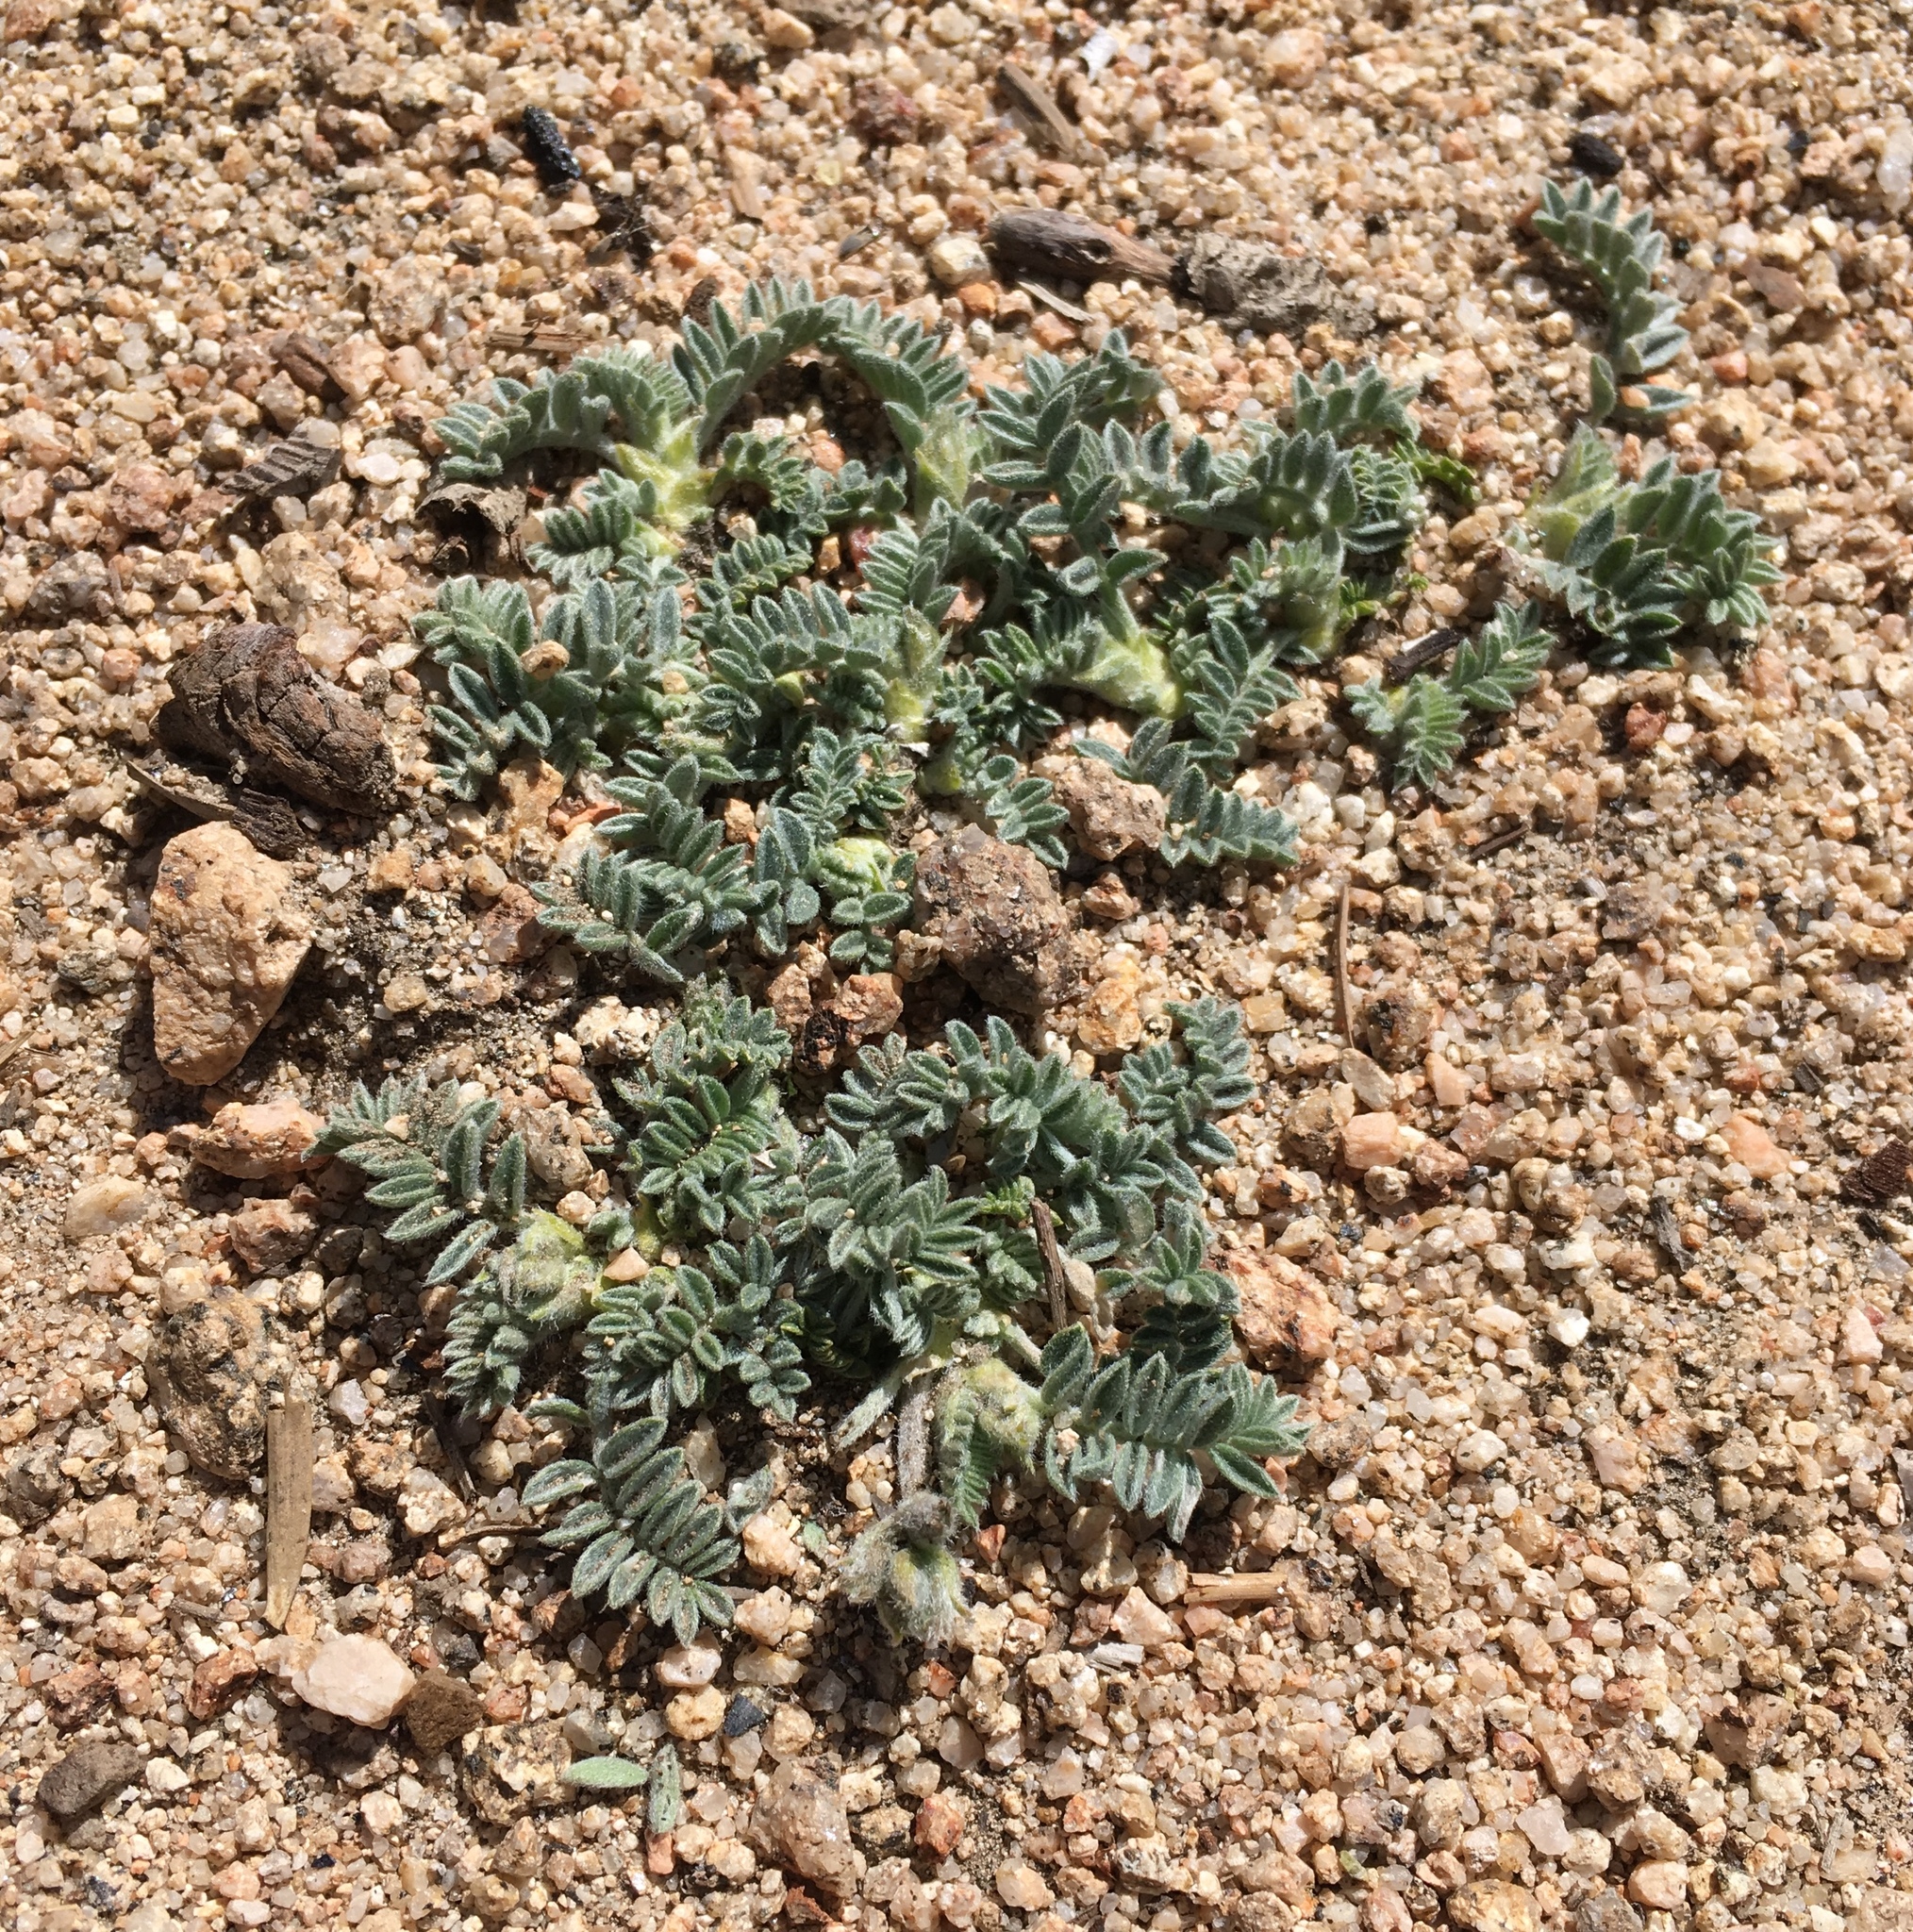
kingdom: Plantae
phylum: Tracheophyta
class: Magnoliopsida
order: Fabales
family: Fabaceae
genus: Astragalus
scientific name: Astragalus lentiginosus
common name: Freckled milkvetch
